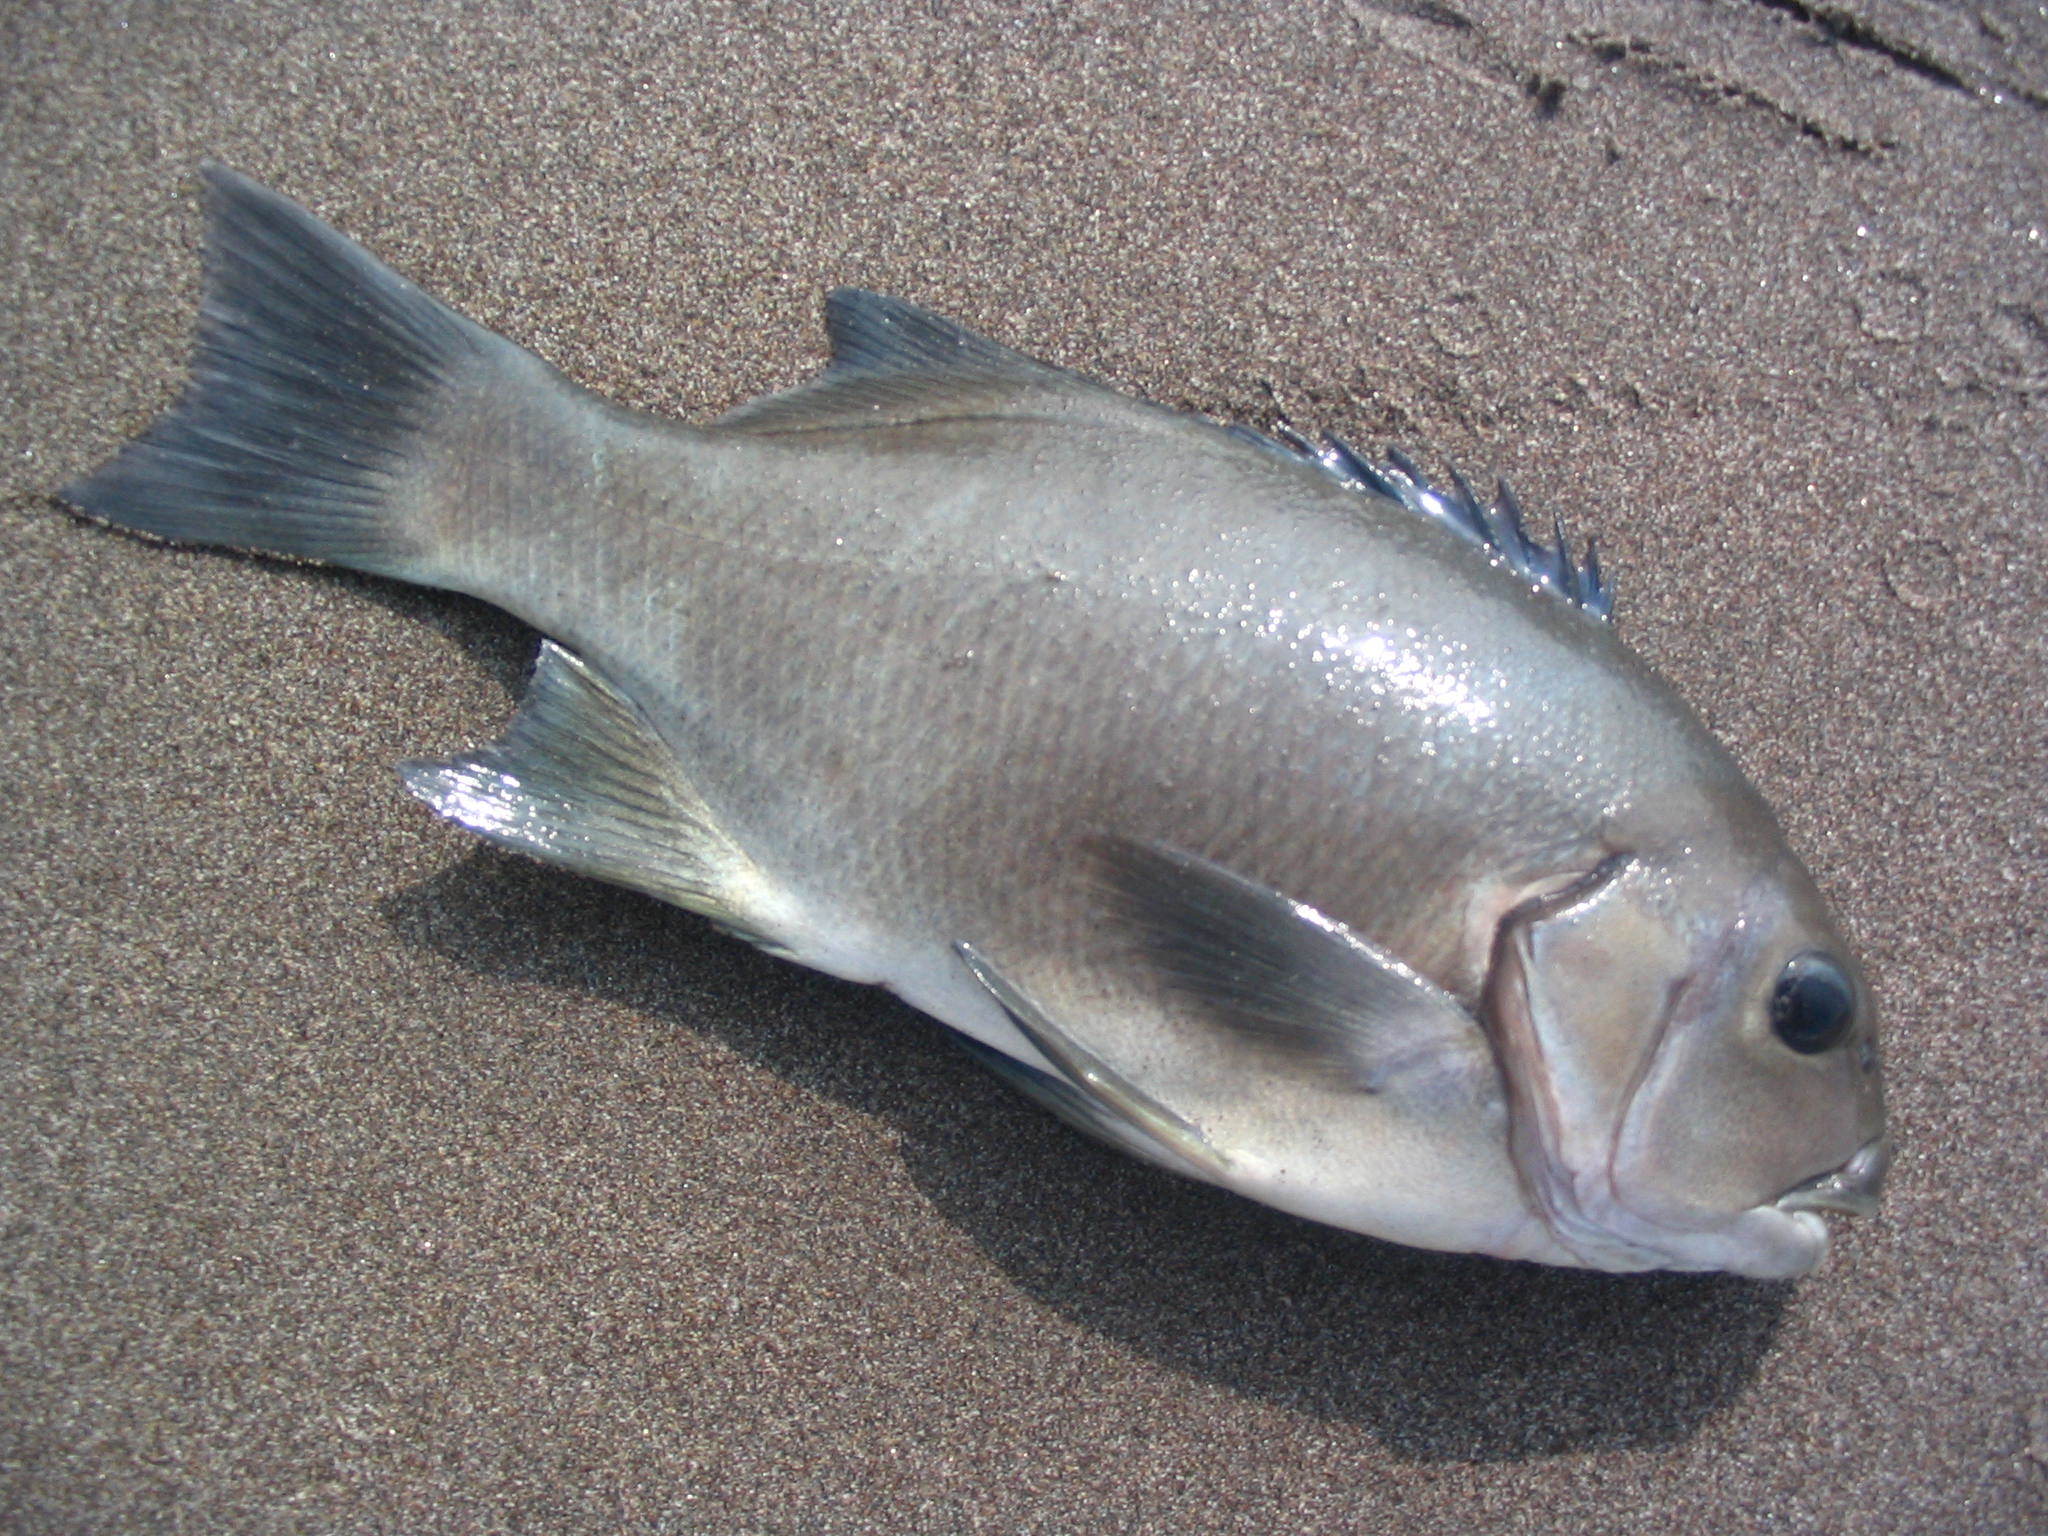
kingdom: Animalia
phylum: Chordata
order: Perciformes
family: Kyphosidae
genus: Girella
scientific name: Girella laevifrons
